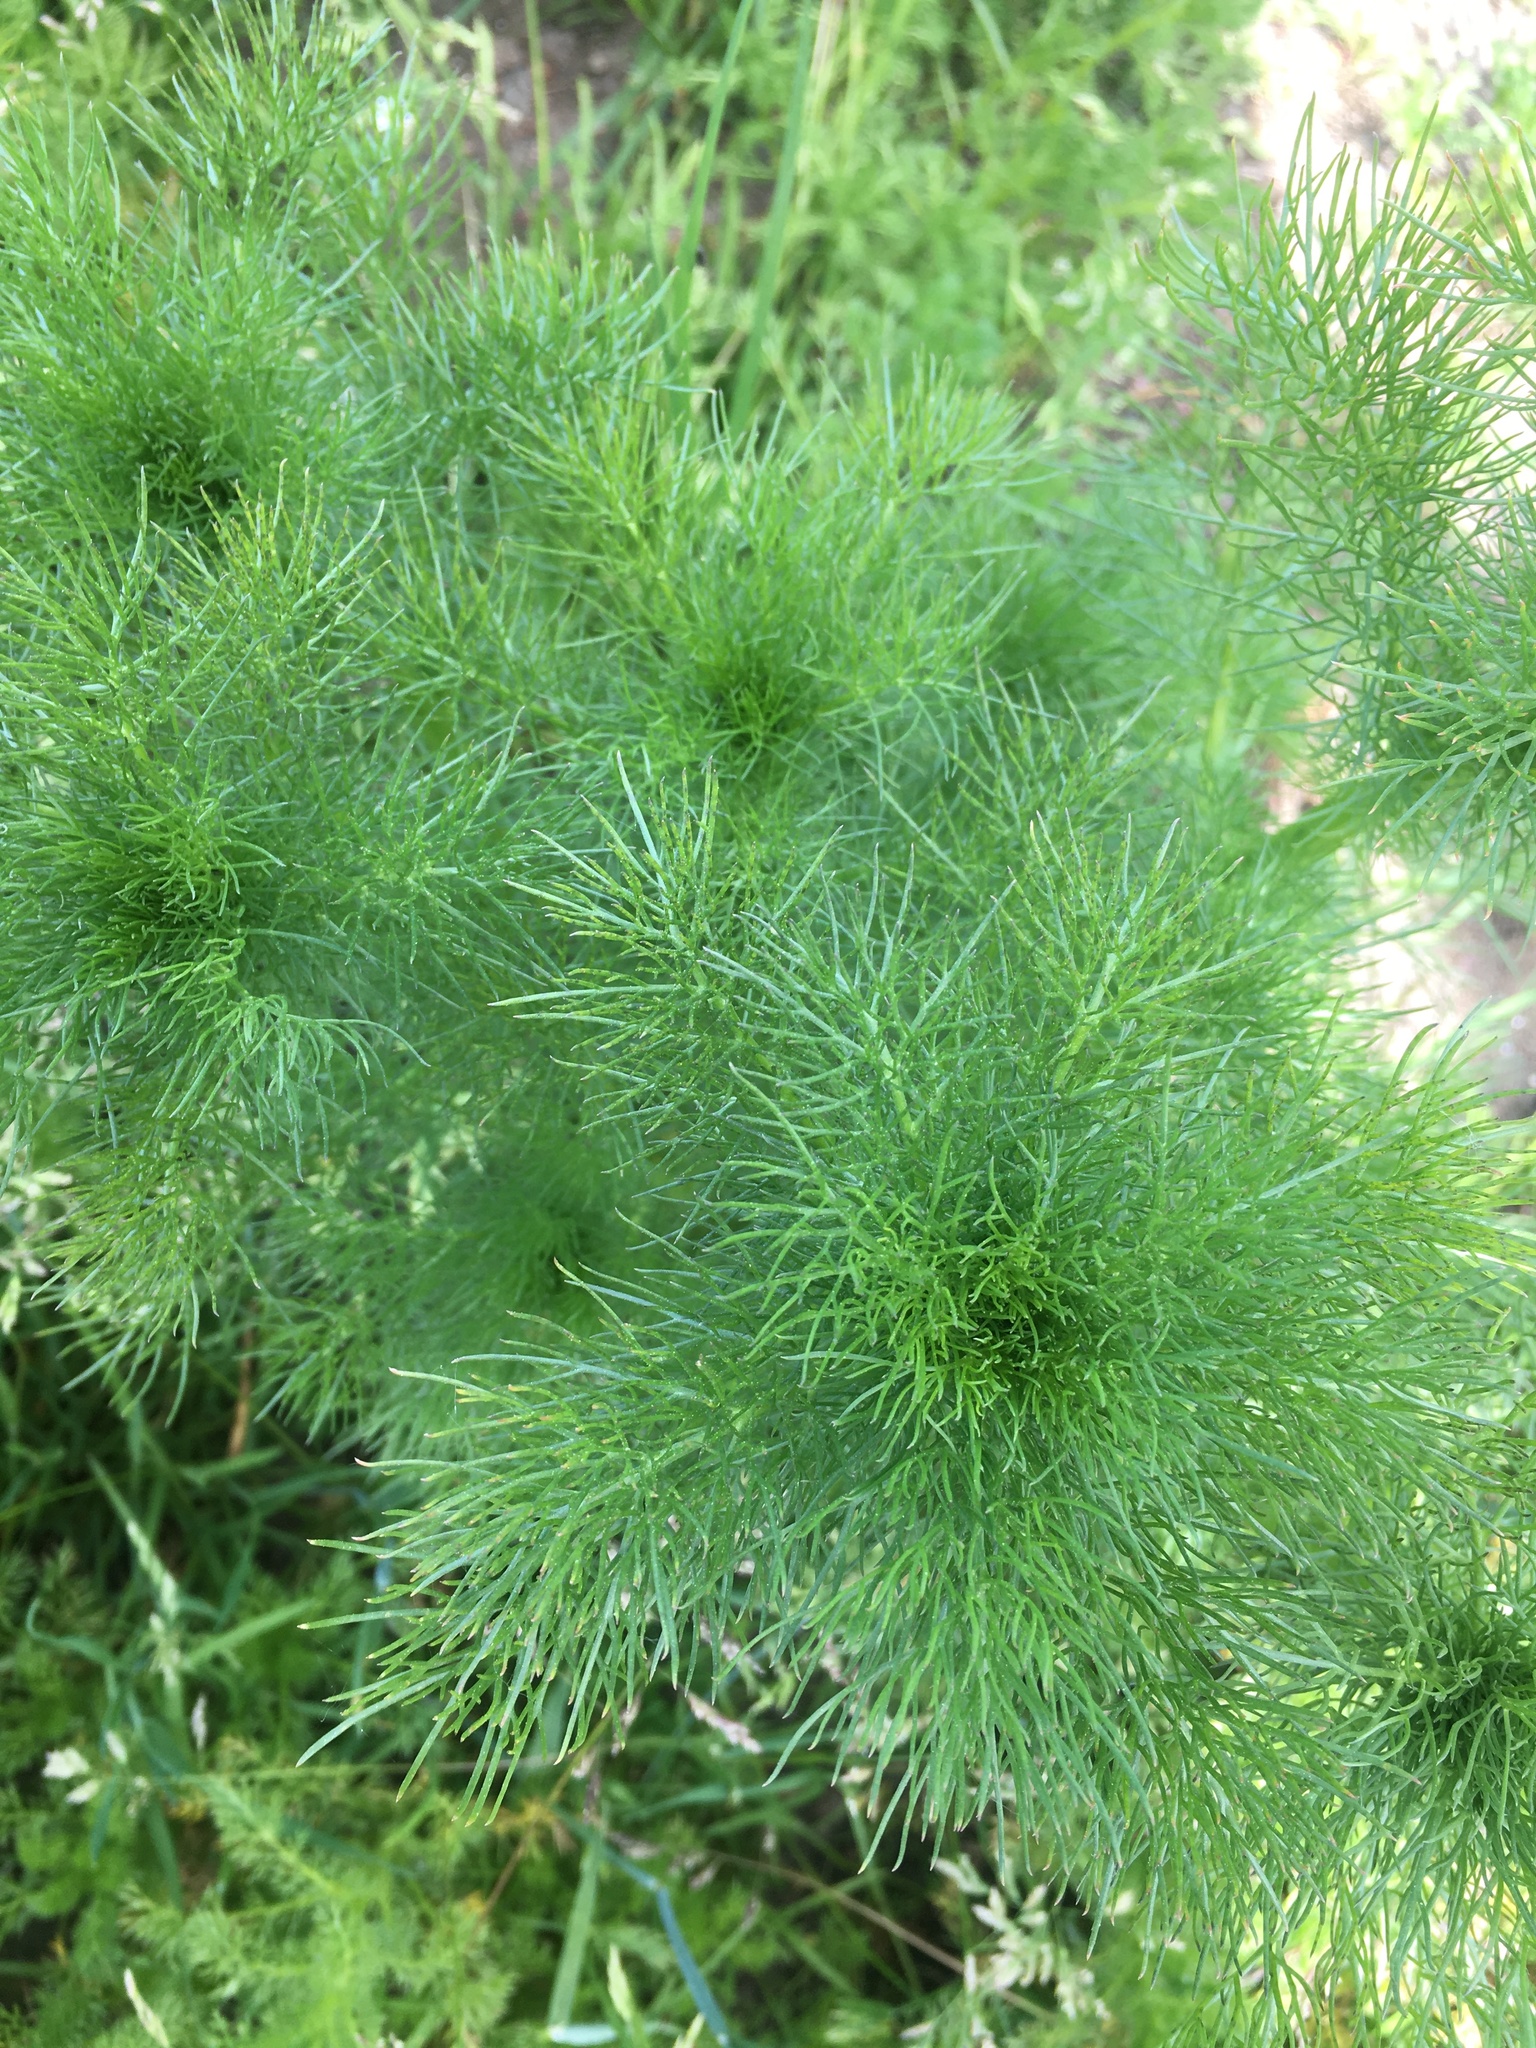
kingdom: Plantae
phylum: Tracheophyta
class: Magnoliopsida
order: Asterales
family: Asteraceae
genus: Tripleurospermum
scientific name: Tripleurospermum inodorum
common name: Scentless mayweed
